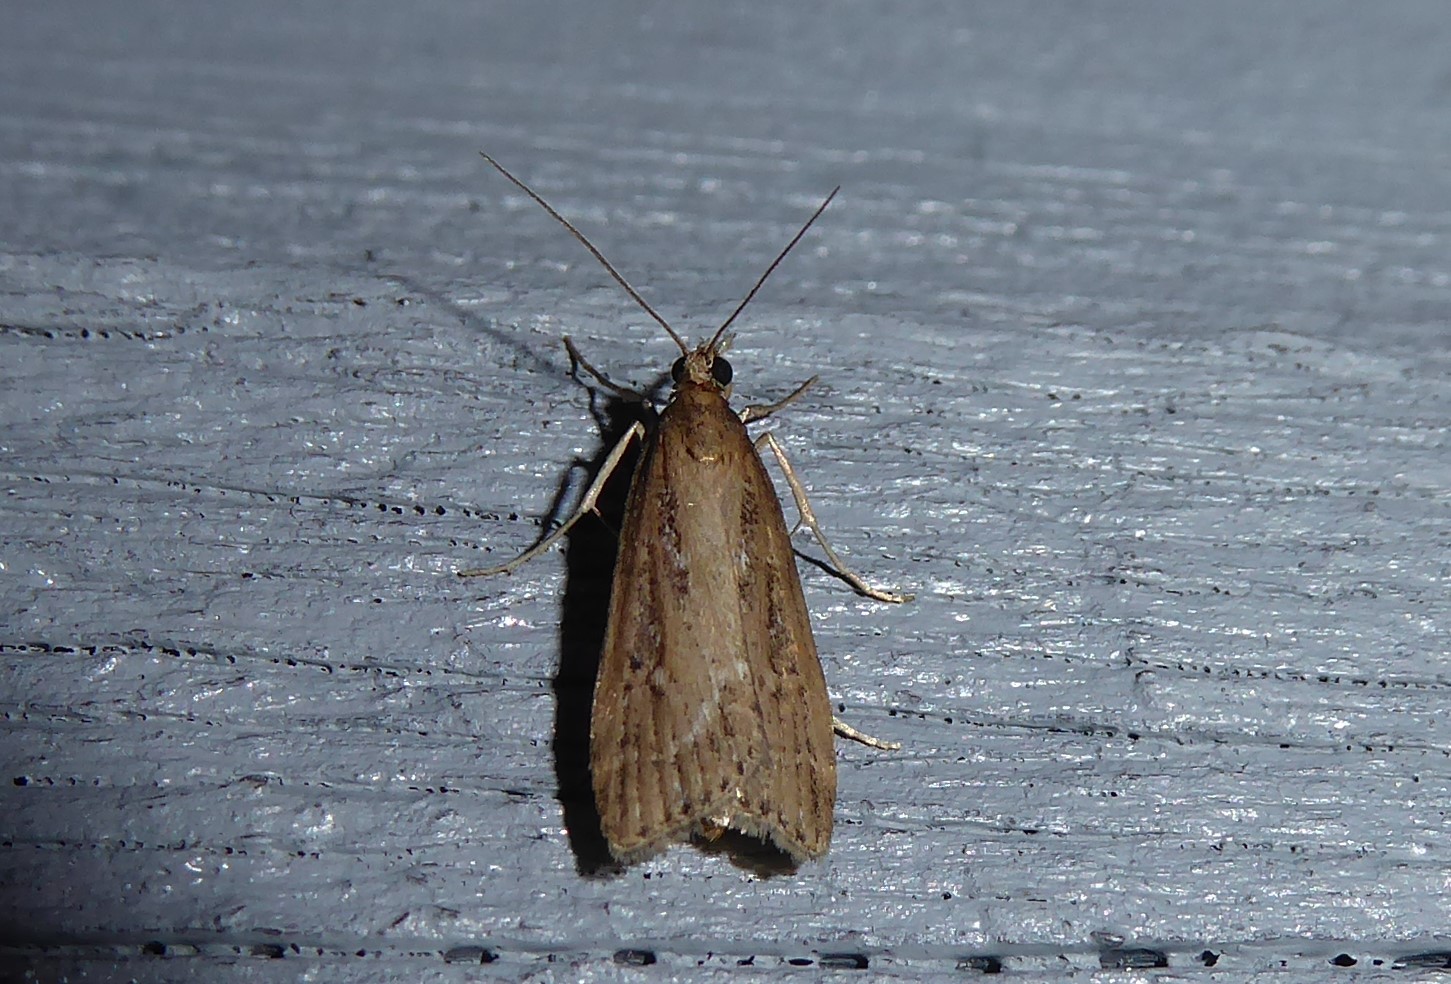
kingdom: Animalia
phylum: Arthropoda
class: Insecta
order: Lepidoptera
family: Crambidae
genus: Eudonia
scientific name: Eudonia octophora
